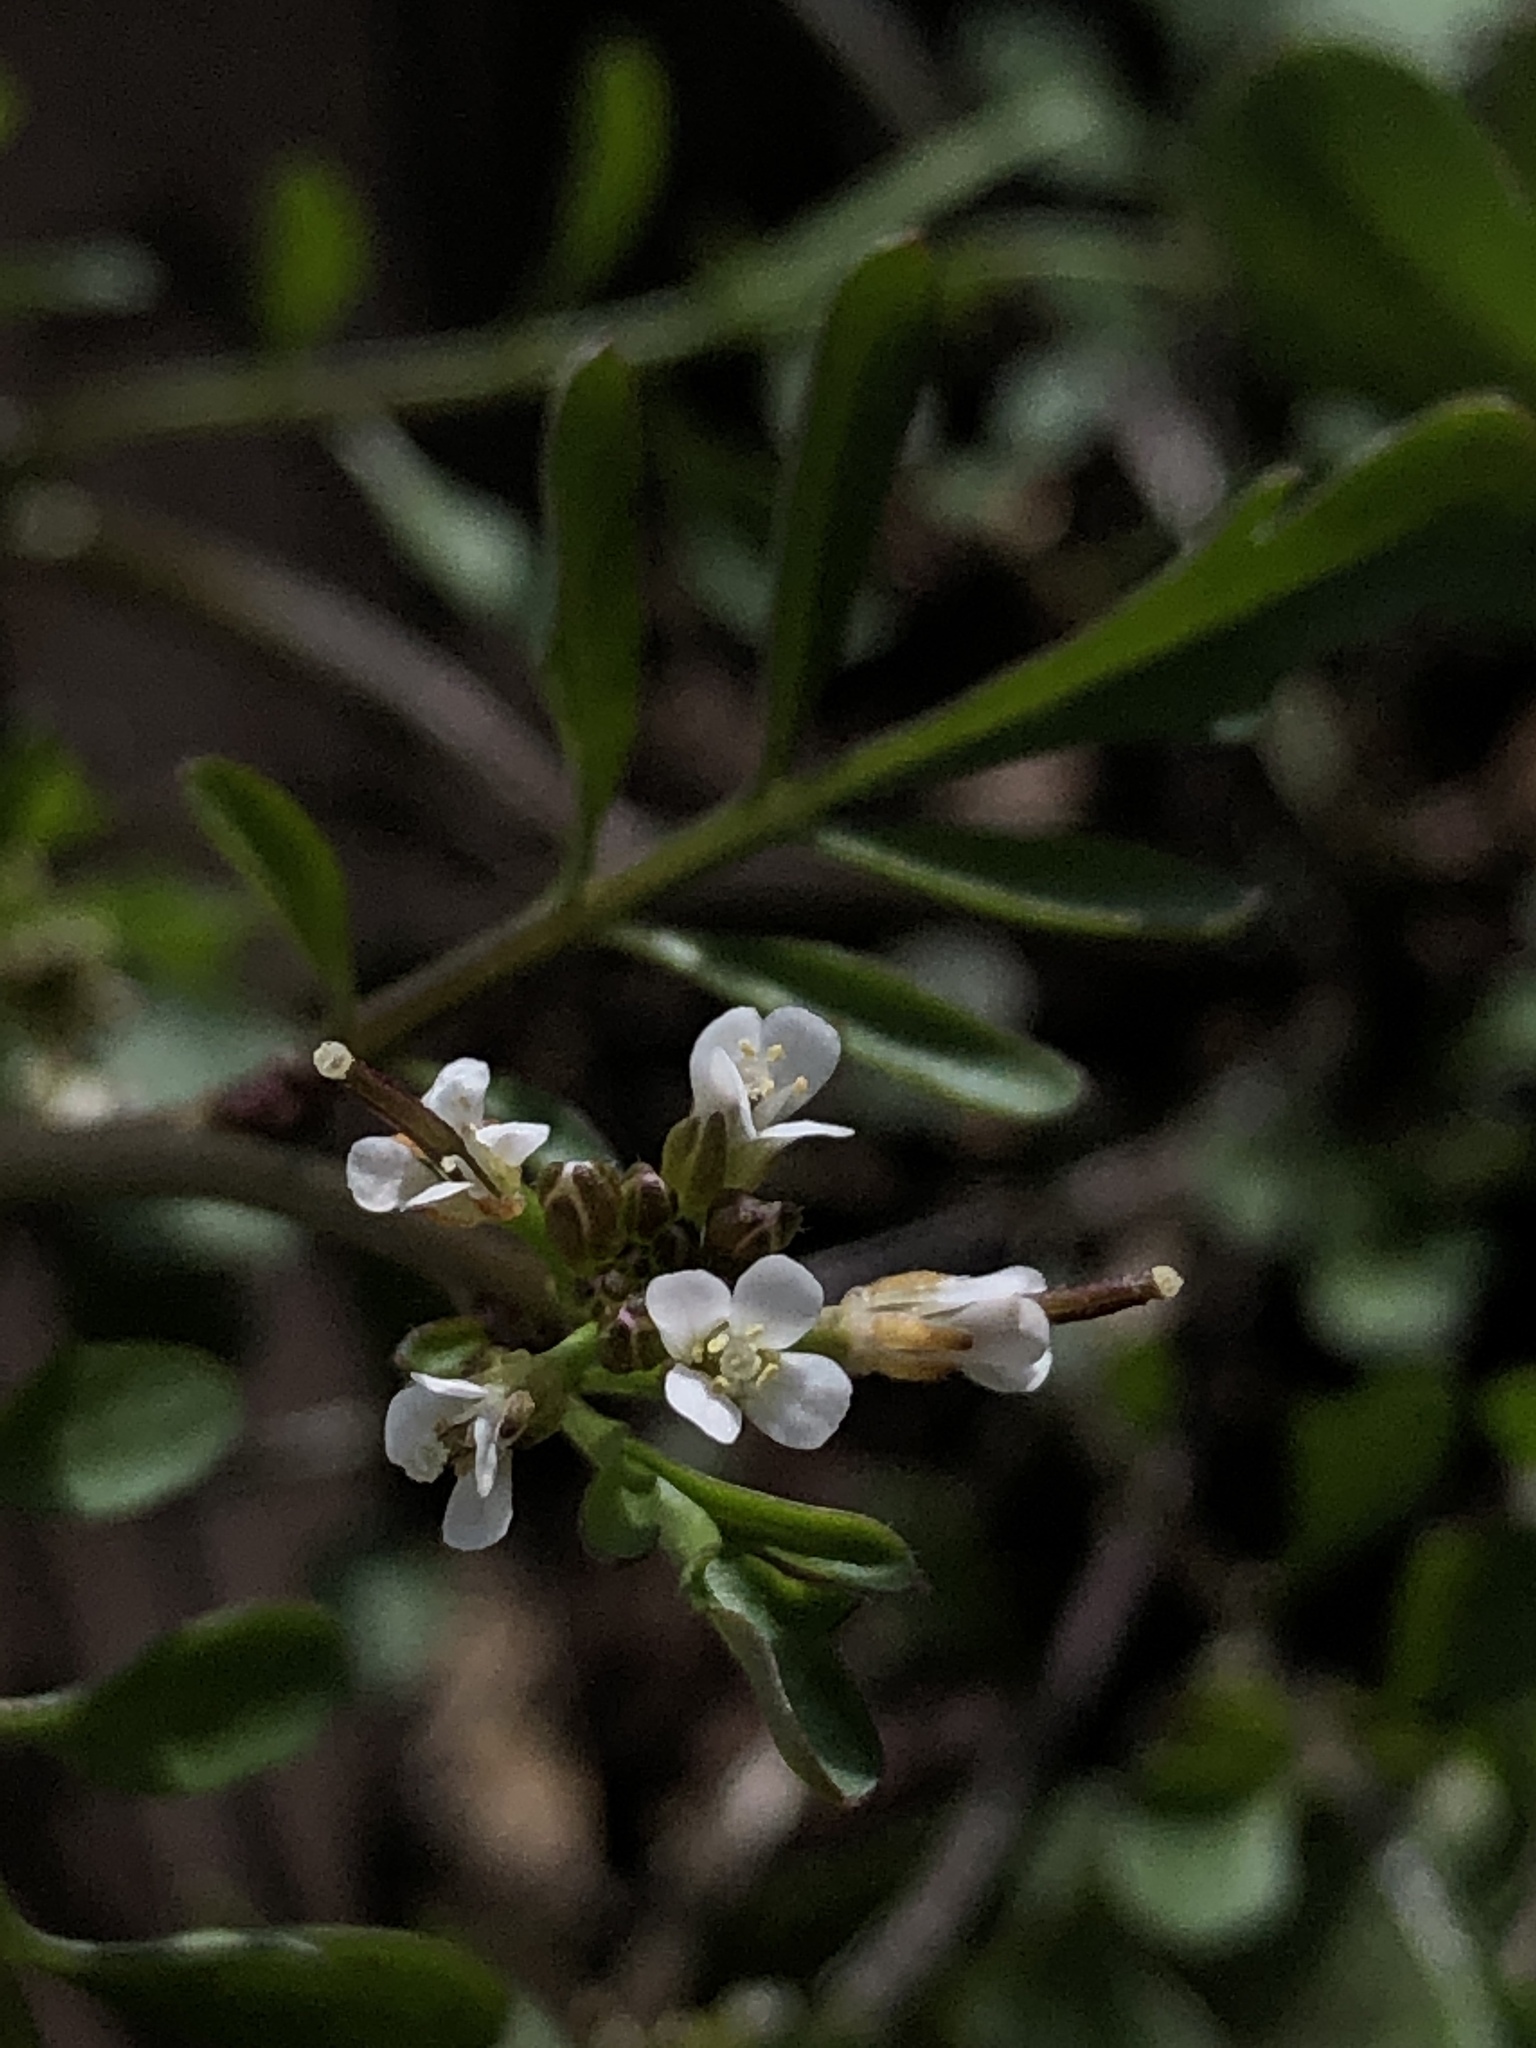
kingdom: Plantae
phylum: Tracheophyta
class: Magnoliopsida
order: Brassicales
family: Brassicaceae
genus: Cardamine
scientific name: Cardamine occulta
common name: Asian wavy bittercress
